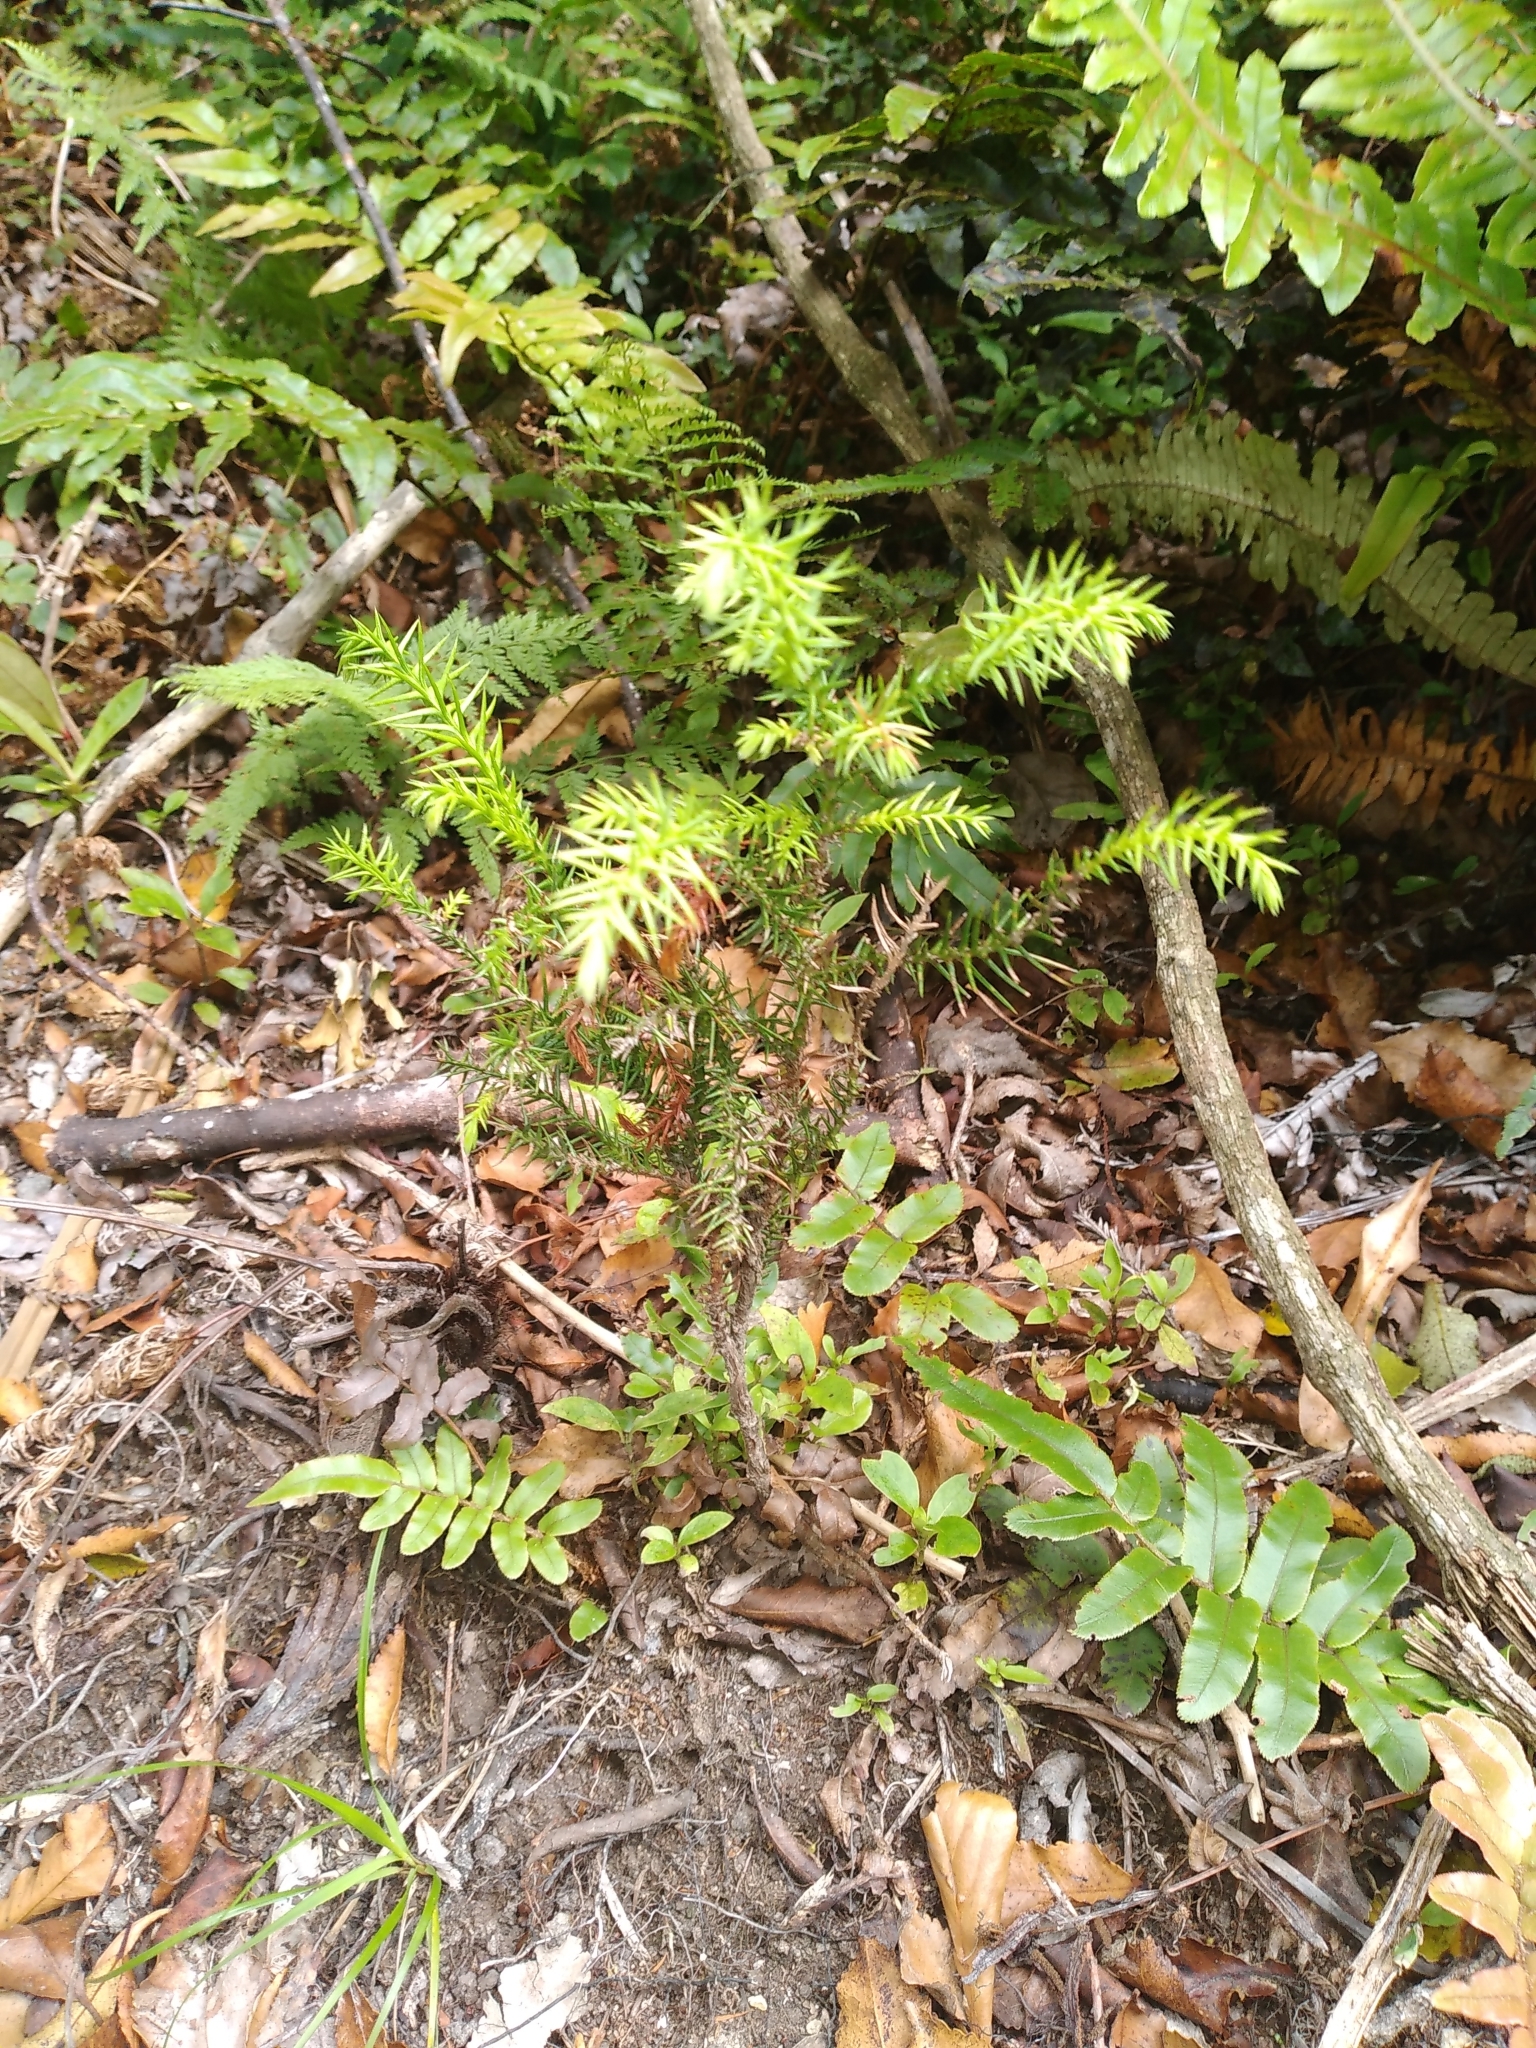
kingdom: Plantae
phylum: Tracheophyta
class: Pinopsida
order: Pinales
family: Cupressaceae
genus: Cryptomeria
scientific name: Cryptomeria japonica
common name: Japanese cedar
